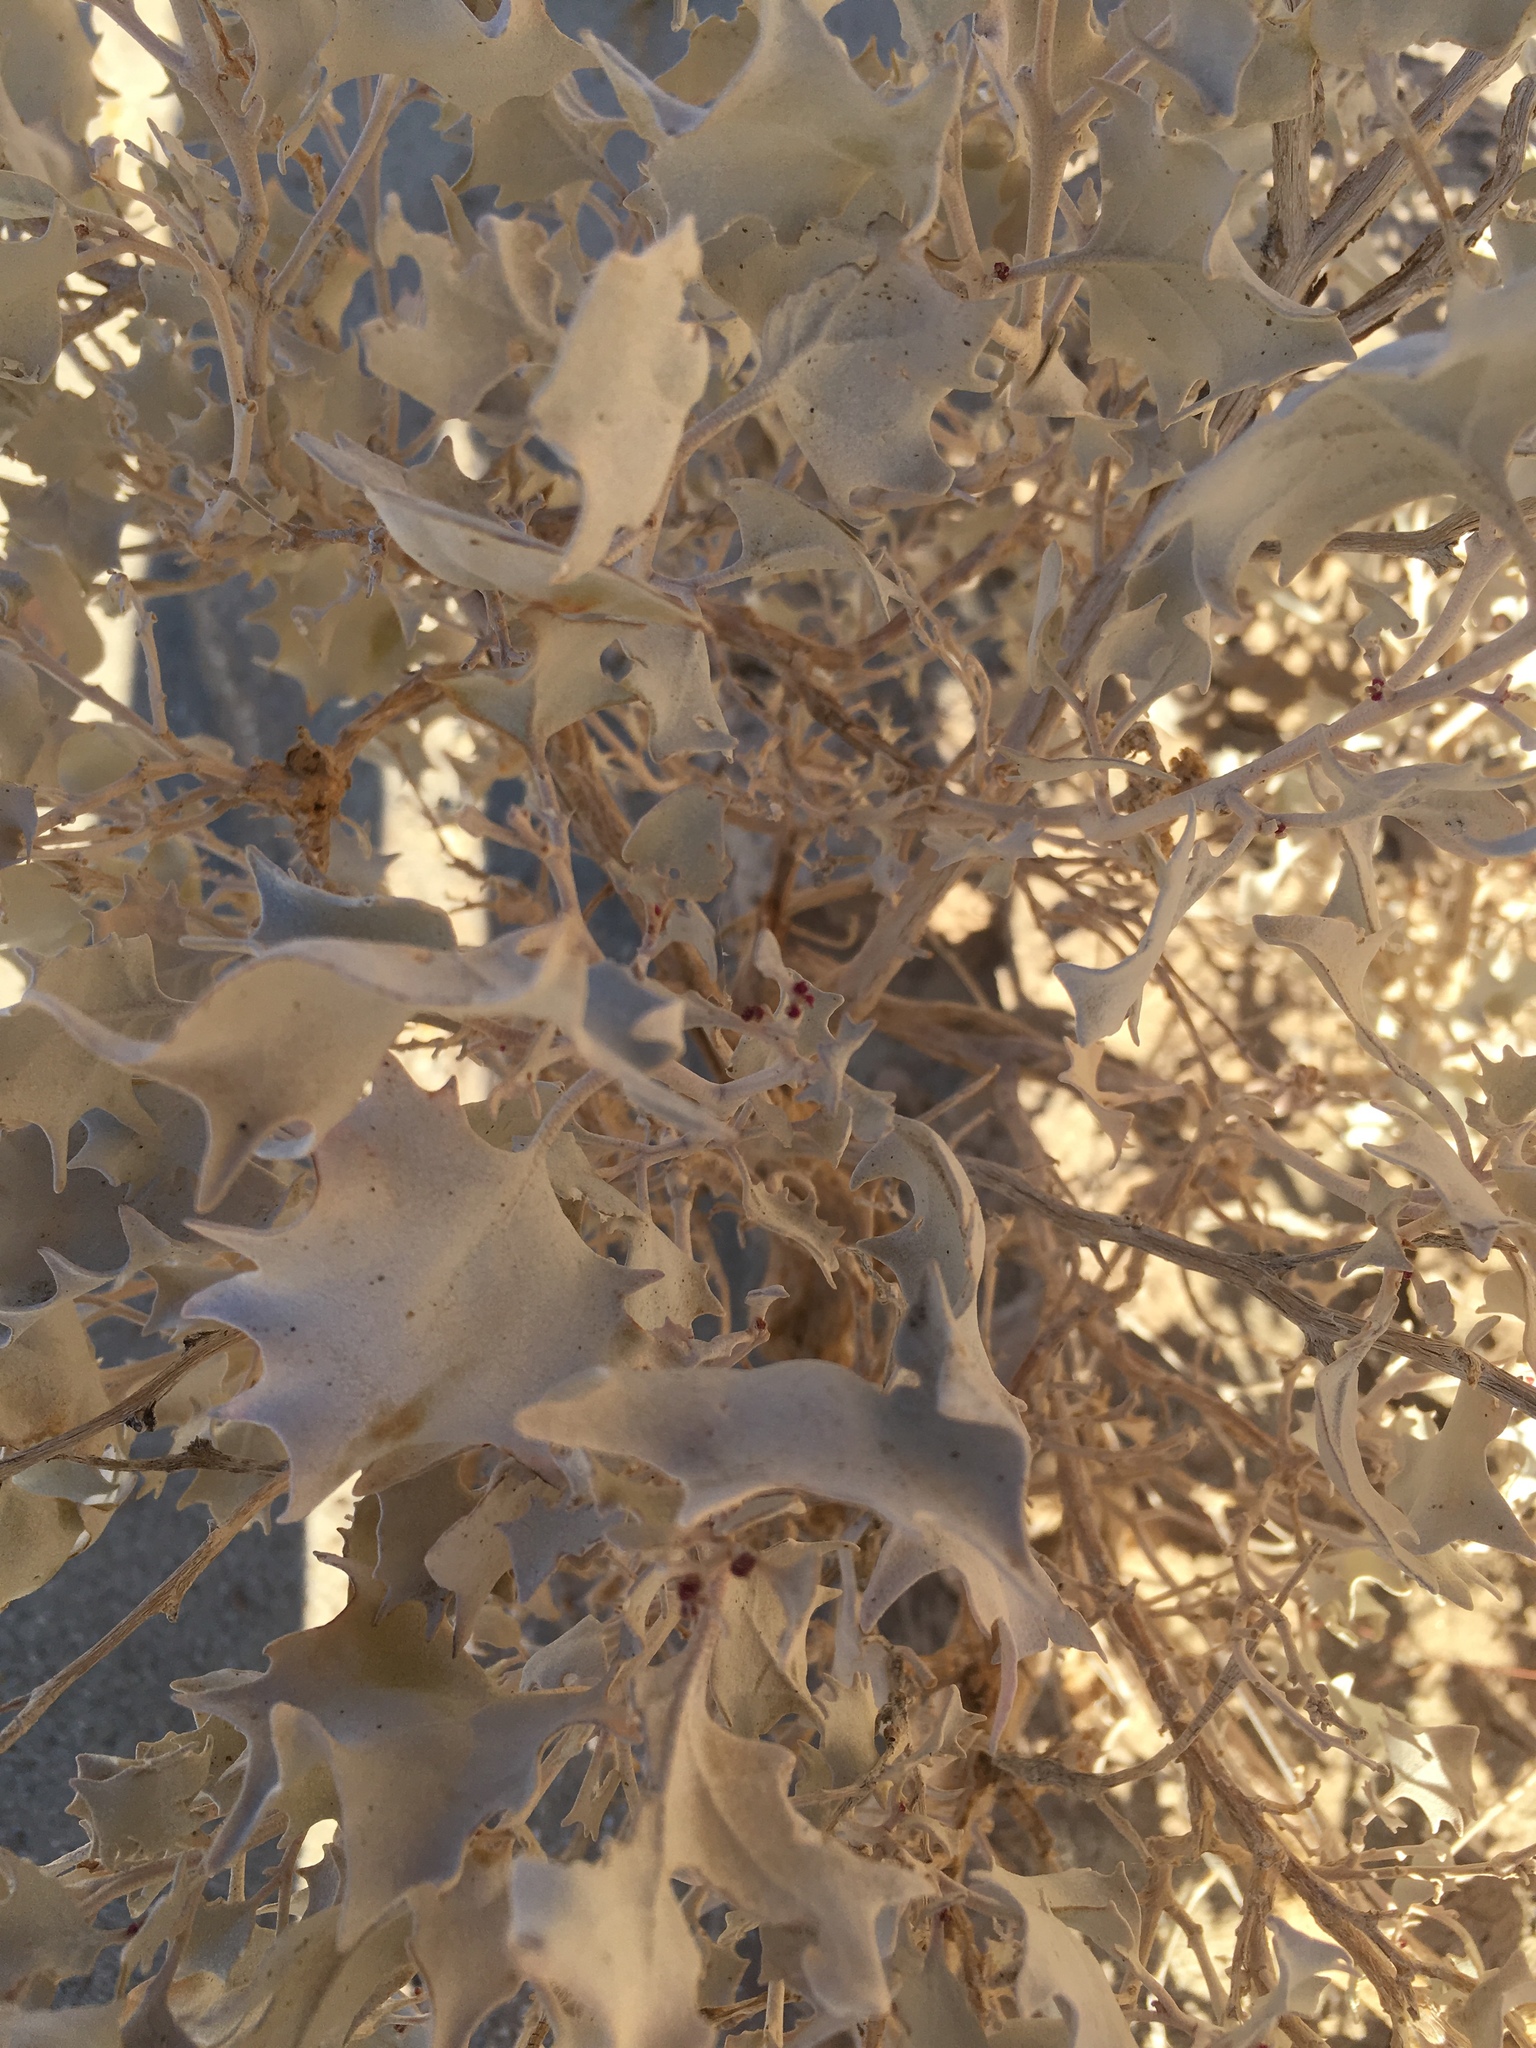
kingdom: Plantae
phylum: Tracheophyta
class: Magnoliopsida
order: Caryophyllales
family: Amaranthaceae
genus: Atriplex
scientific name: Atriplex hymenelytra
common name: Desert-holly
